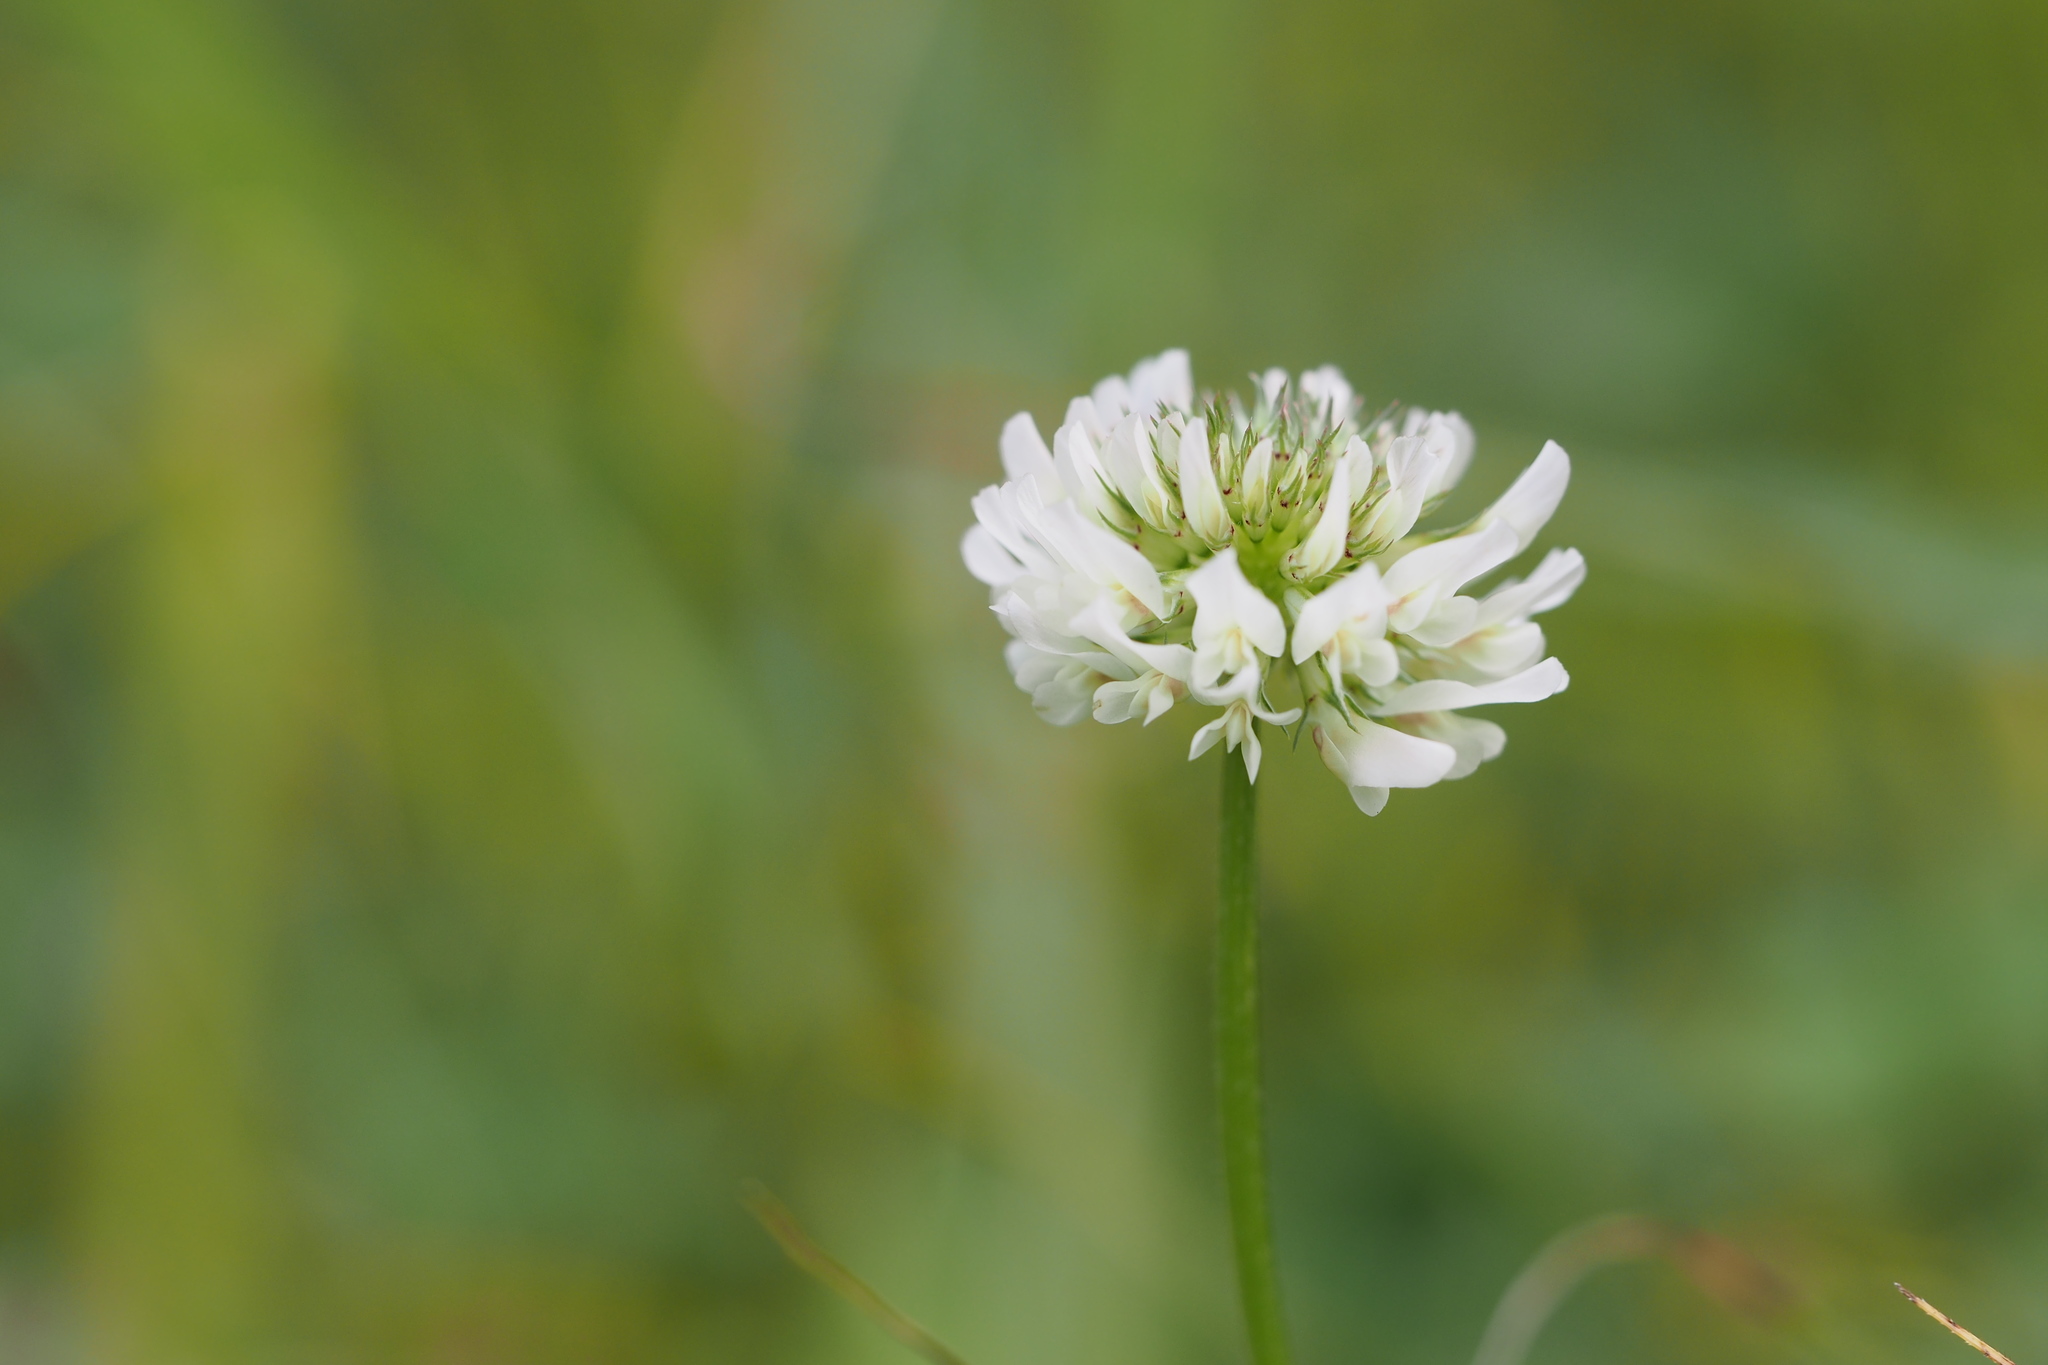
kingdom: Plantae
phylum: Tracheophyta
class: Magnoliopsida
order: Fabales
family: Fabaceae
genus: Trifolium
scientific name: Trifolium repens
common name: White clover
